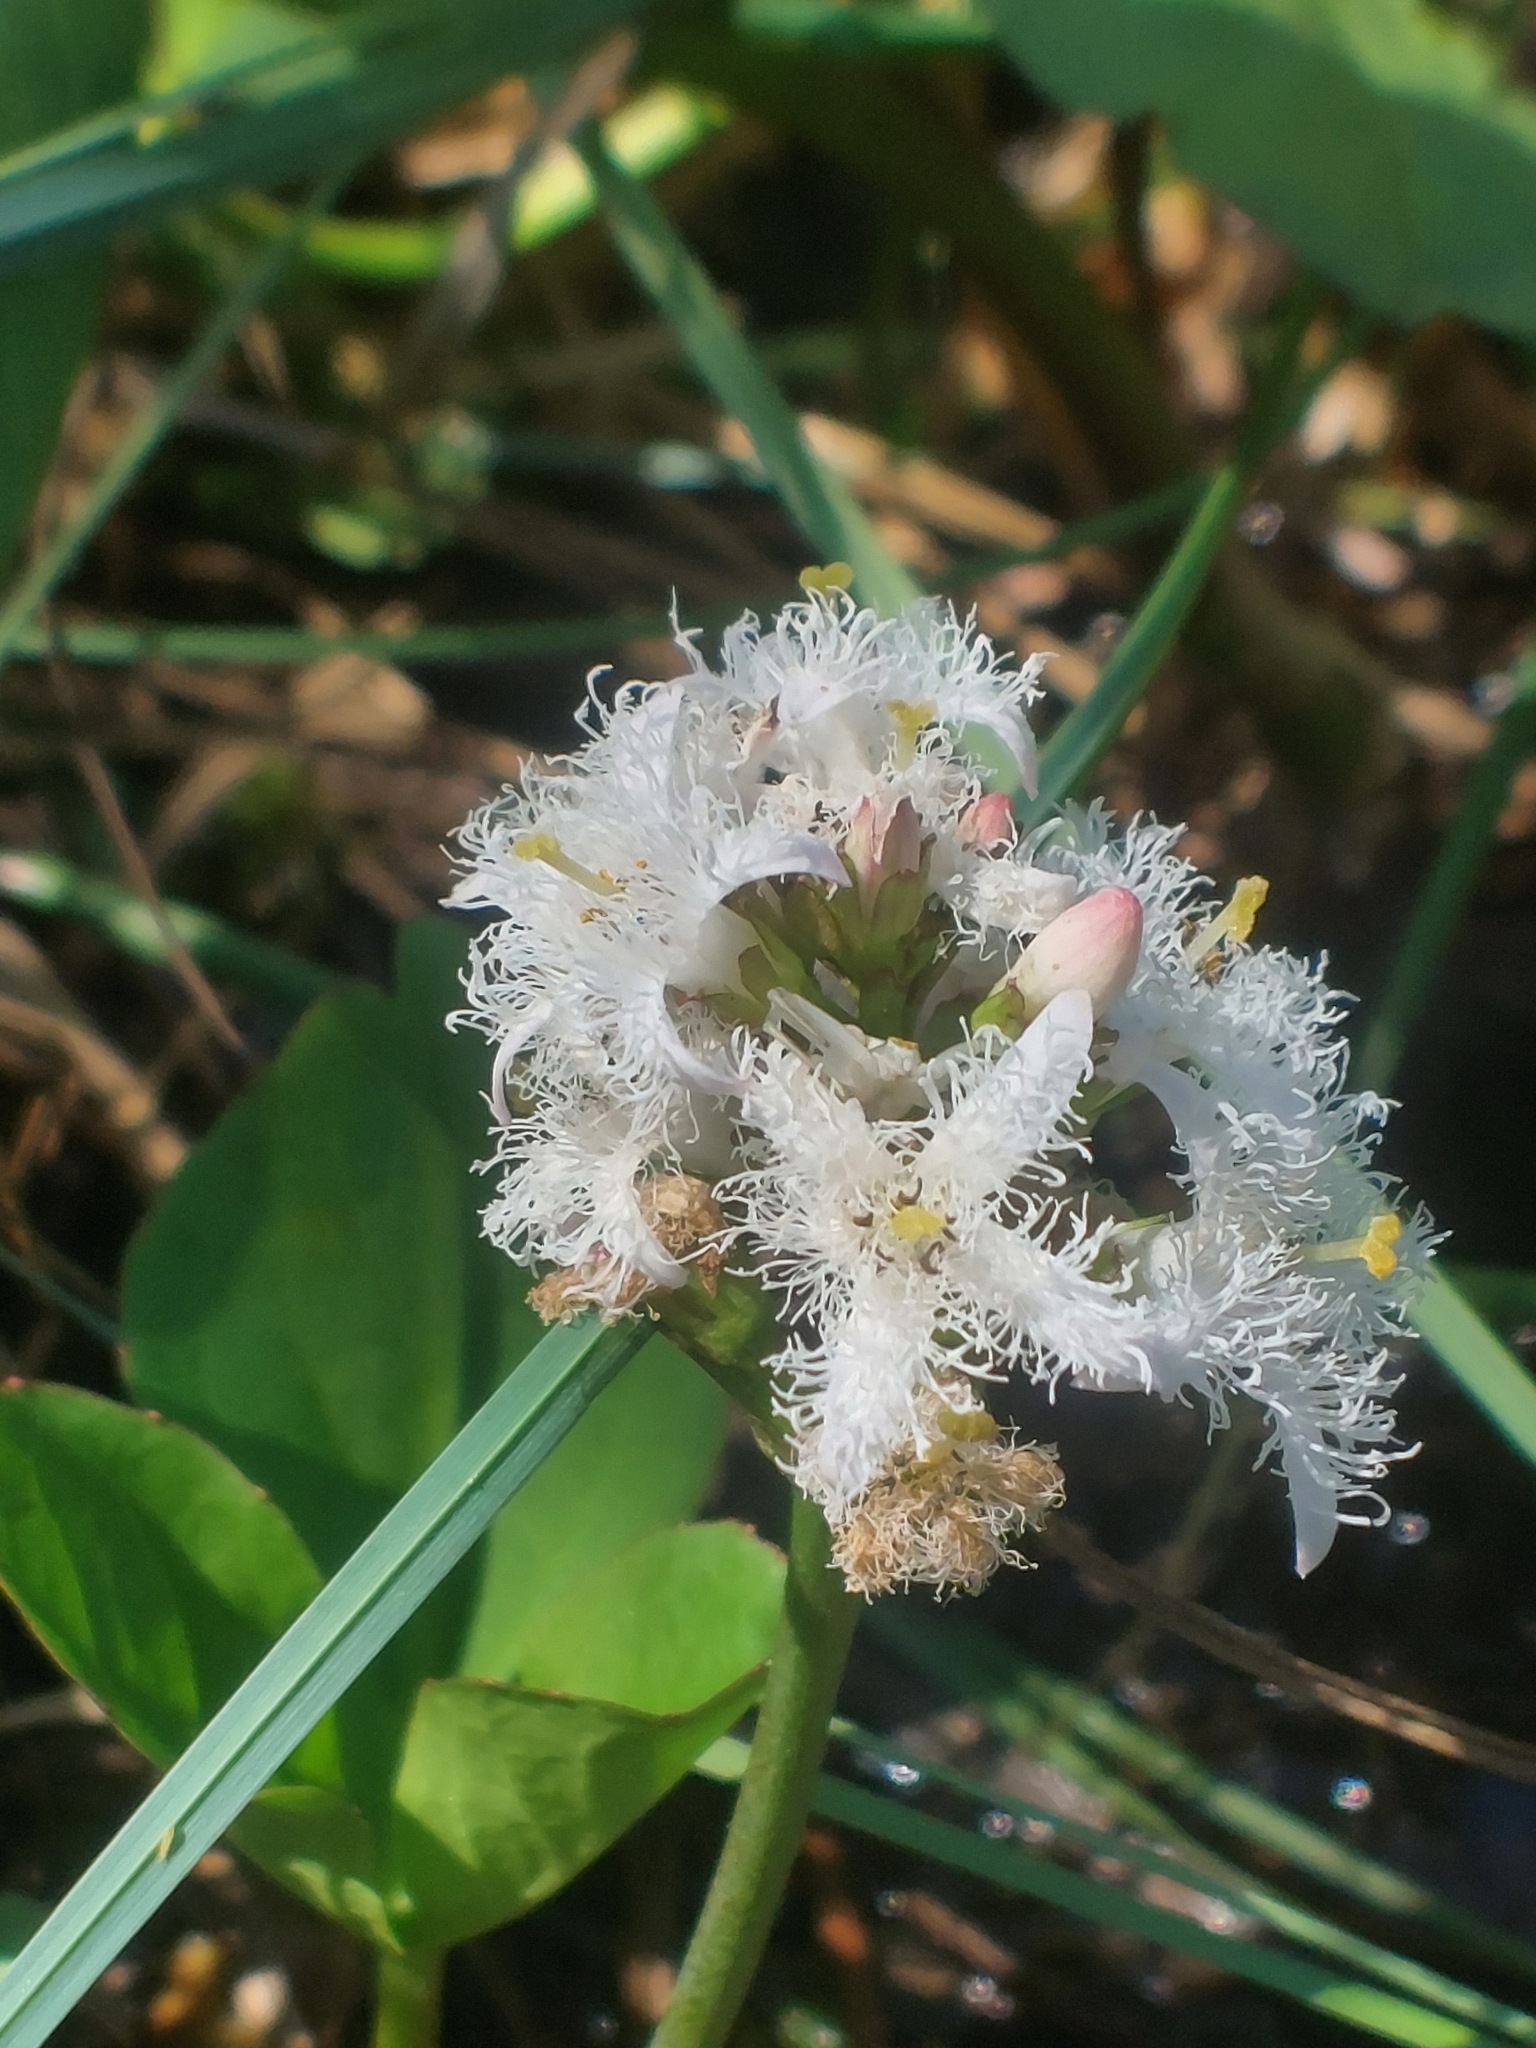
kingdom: Plantae
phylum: Tracheophyta
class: Magnoliopsida
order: Asterales
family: Menyanthaceae
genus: Menyanthes
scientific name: Menyanthes trifoliata
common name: Bogbean
